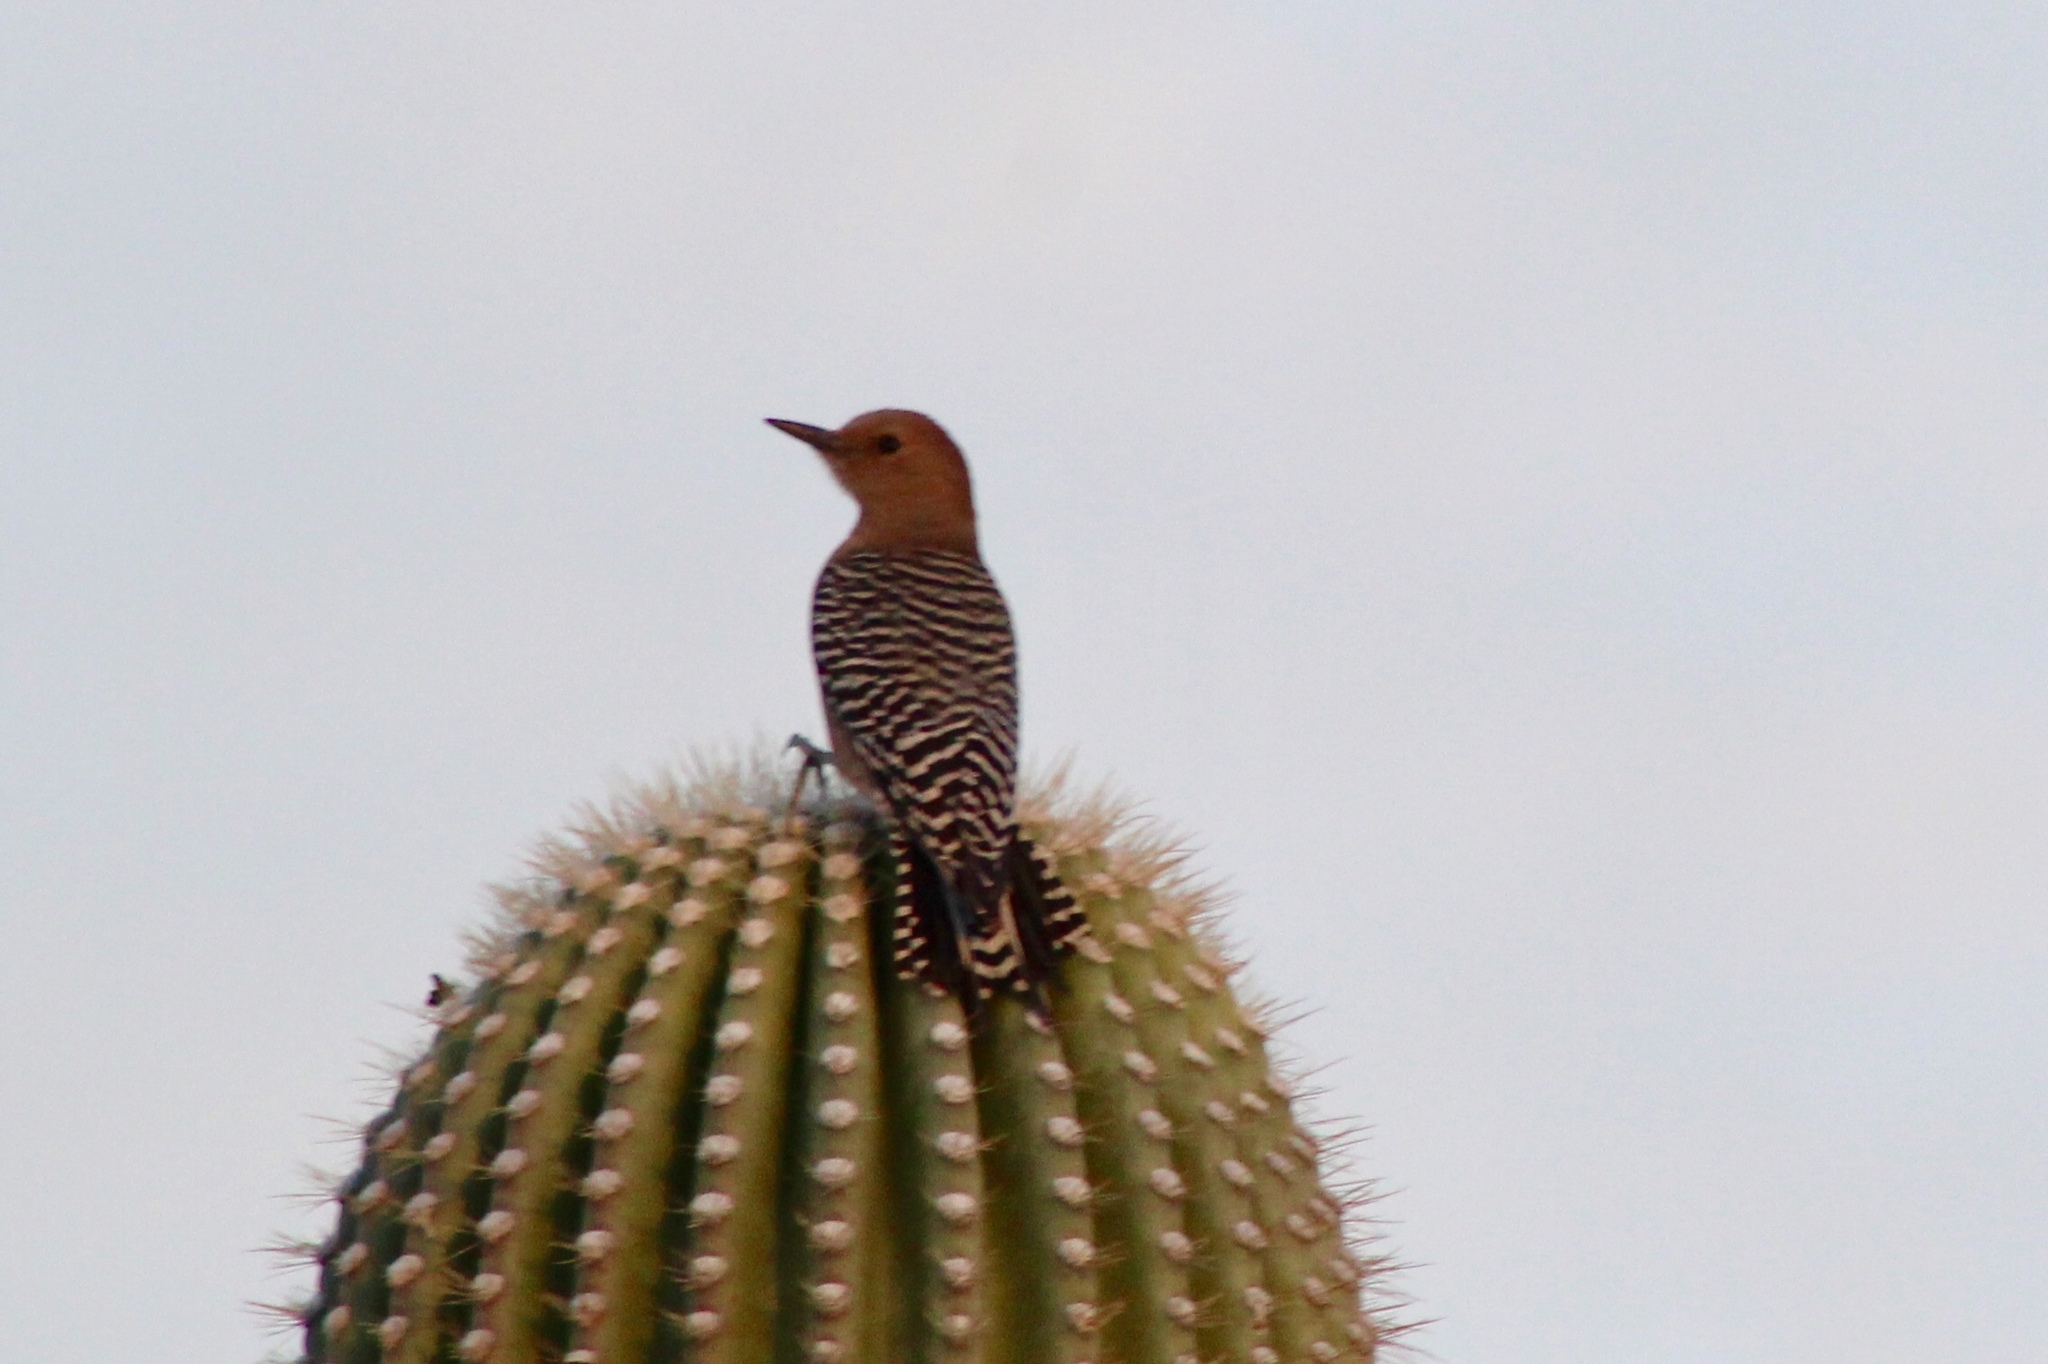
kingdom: Animalia
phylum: Chordata
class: Aves
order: Piciformes
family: Picidae
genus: Melanerpes
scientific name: Melanerpes uropygialis
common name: Gila woodpecker
